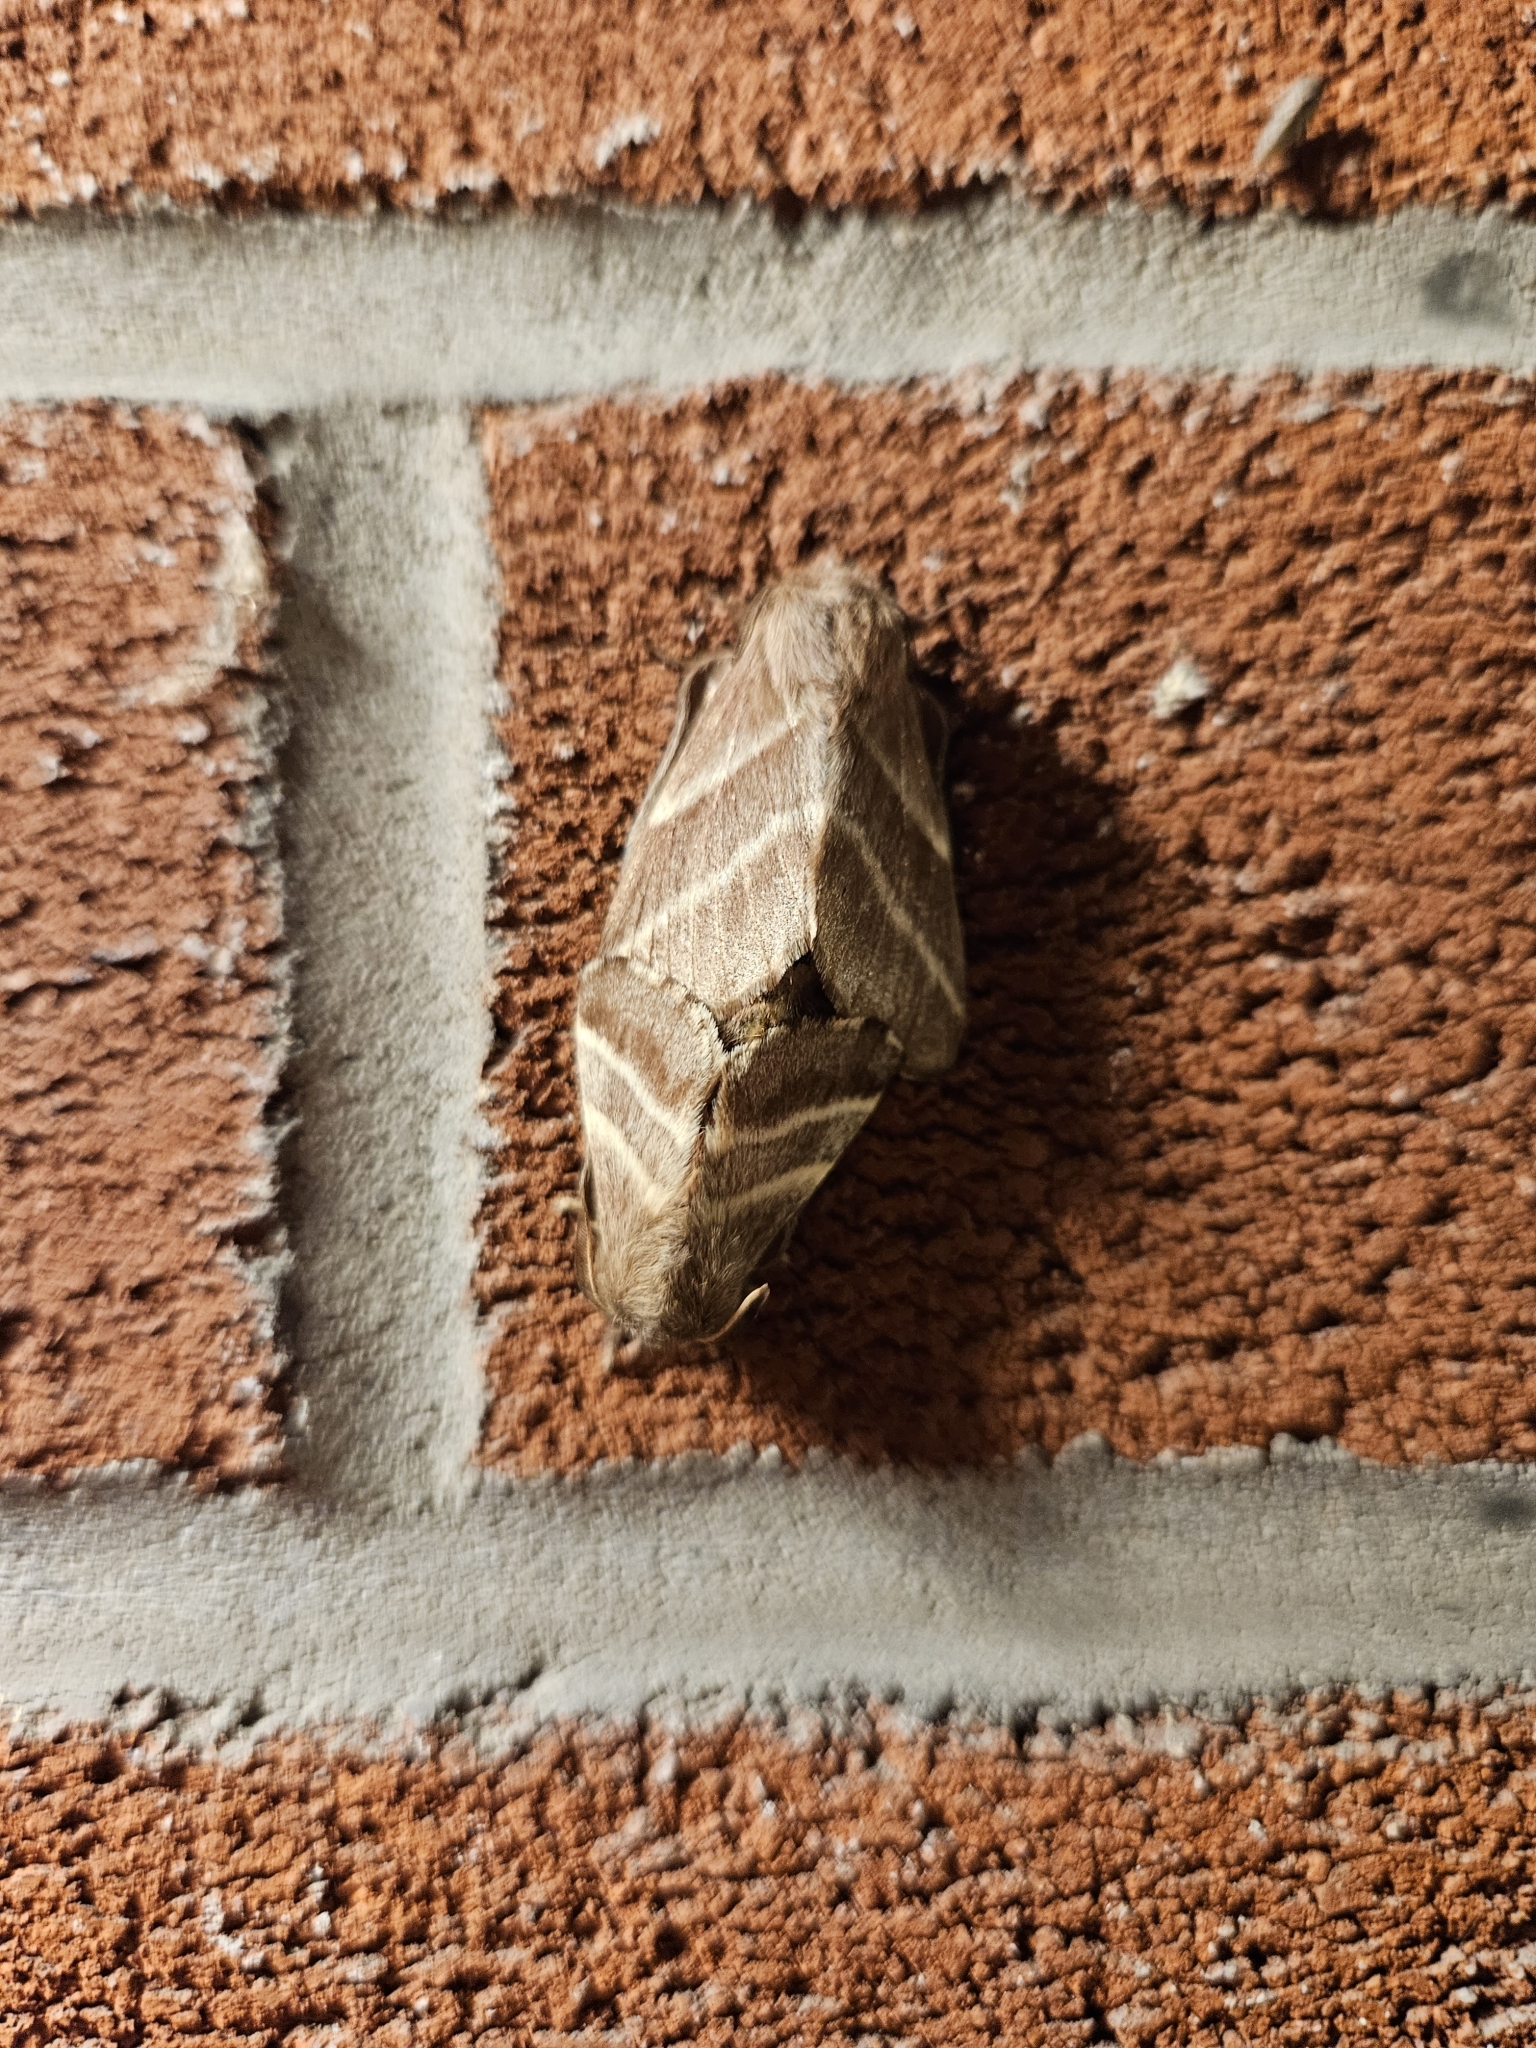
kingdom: Animalia
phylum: Arthropoda
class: Insecta
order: Lepidoptera
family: Lasiocampidae
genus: Malacosoma
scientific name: Malacosoma americana
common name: Eastern tent caterpillar moth
